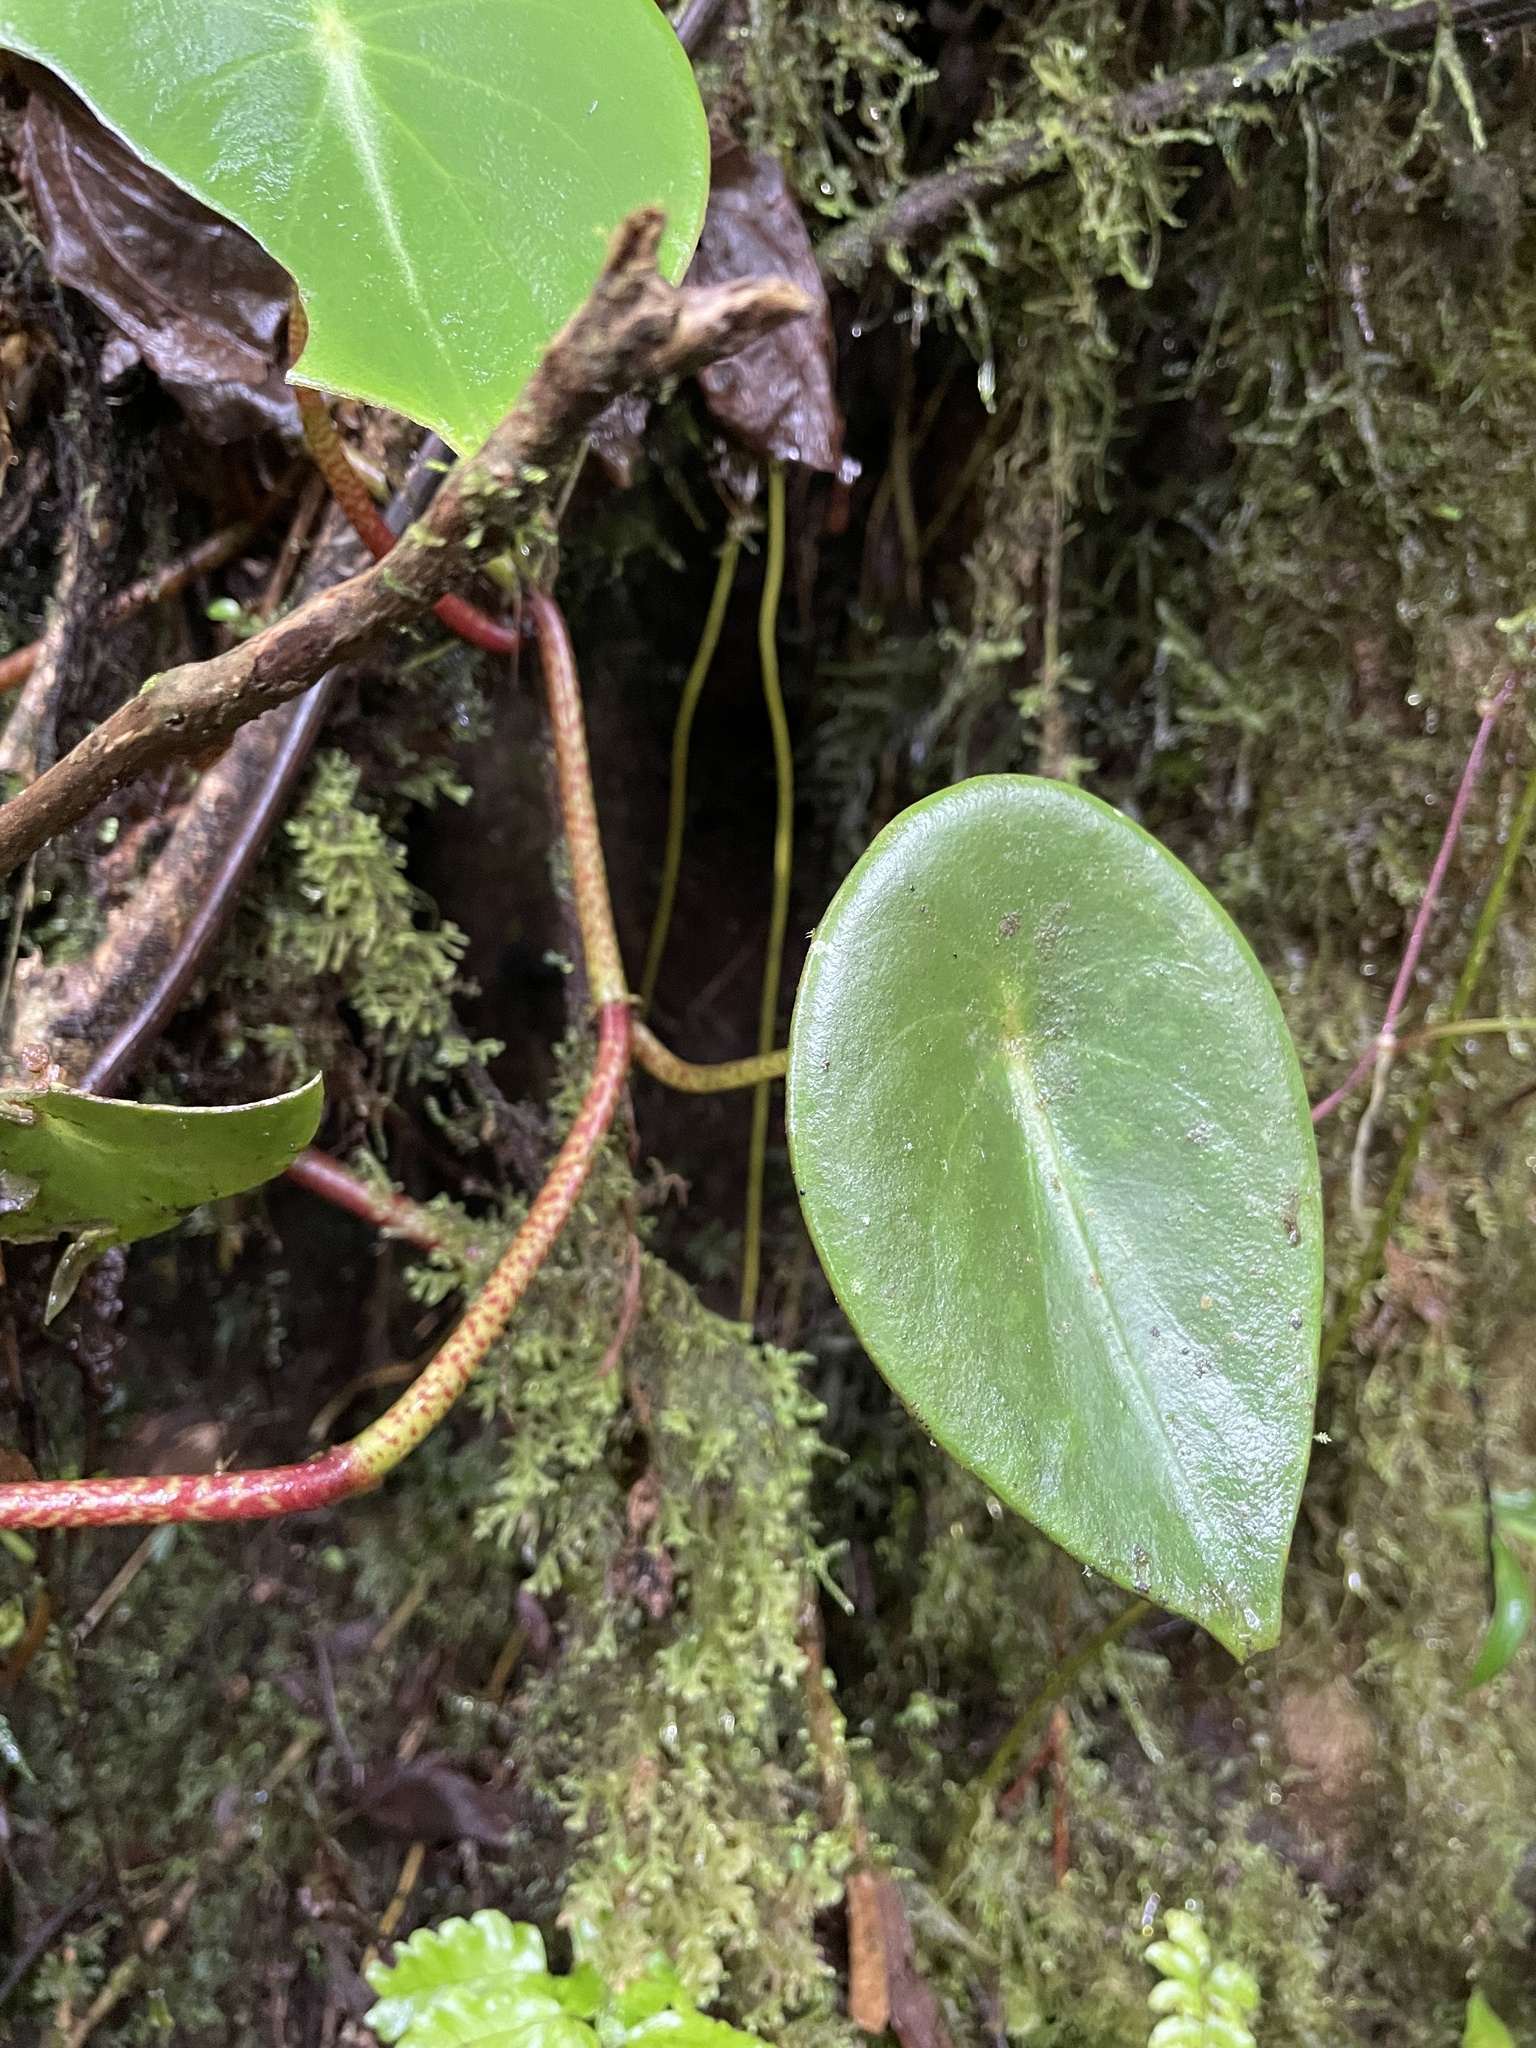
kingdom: Plantae
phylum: Tracheophyta
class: Magnoliopsida
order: Piperales
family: Piperaceae
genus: Peperomia
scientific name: Peperomia hernandiifolia
